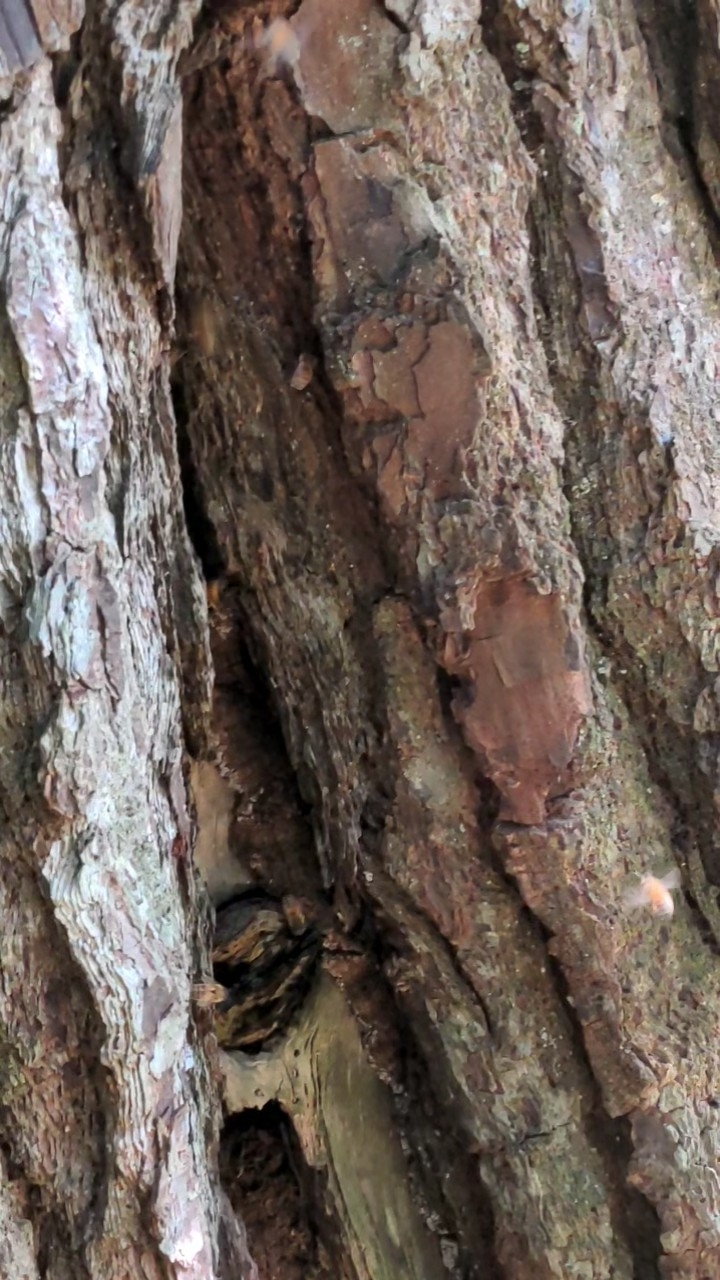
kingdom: Animalia
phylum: Arthropoda
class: Insecta
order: Hymenoptera
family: Apidae
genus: Apis
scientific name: Apis mellifera
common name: Honey bee
